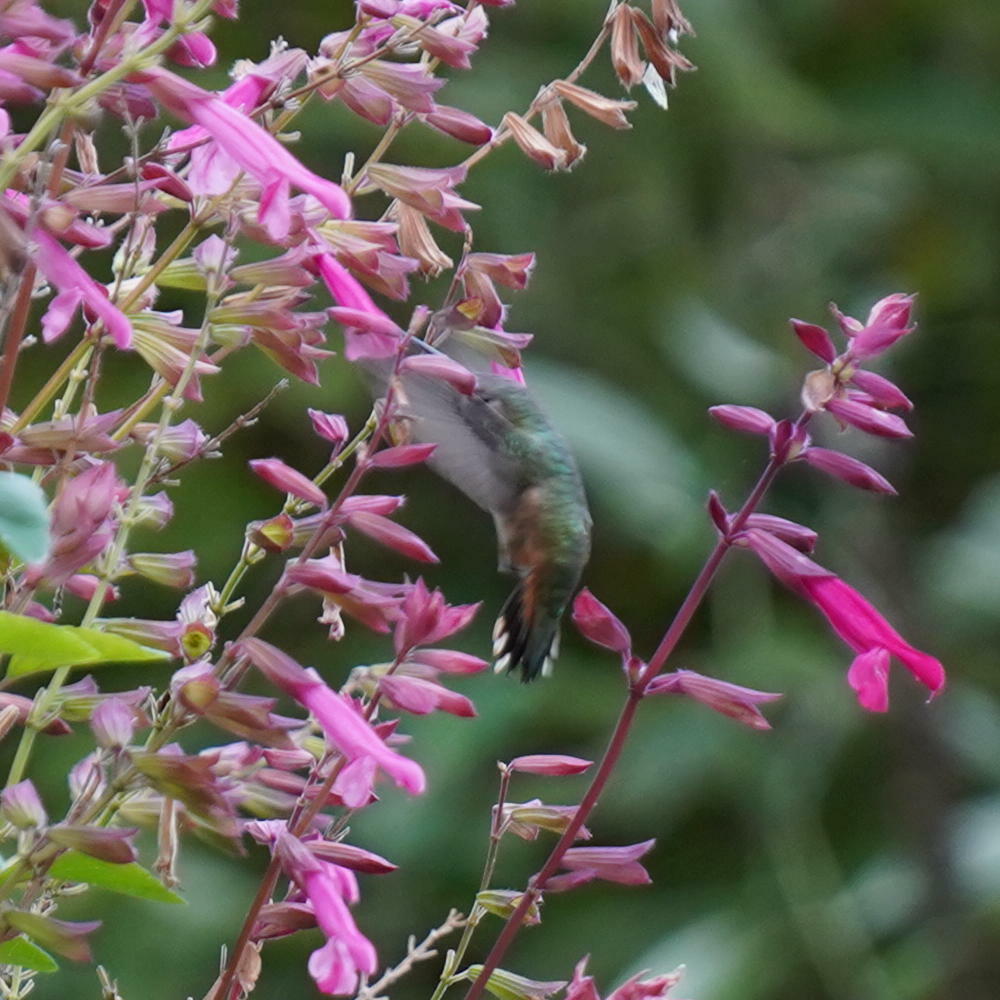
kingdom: Animalia
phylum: Chordata
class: Aves
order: Apodiformes
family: Trochilidae
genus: Selasphorus
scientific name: Selasphorus sasin
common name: Allen's hummingbird
